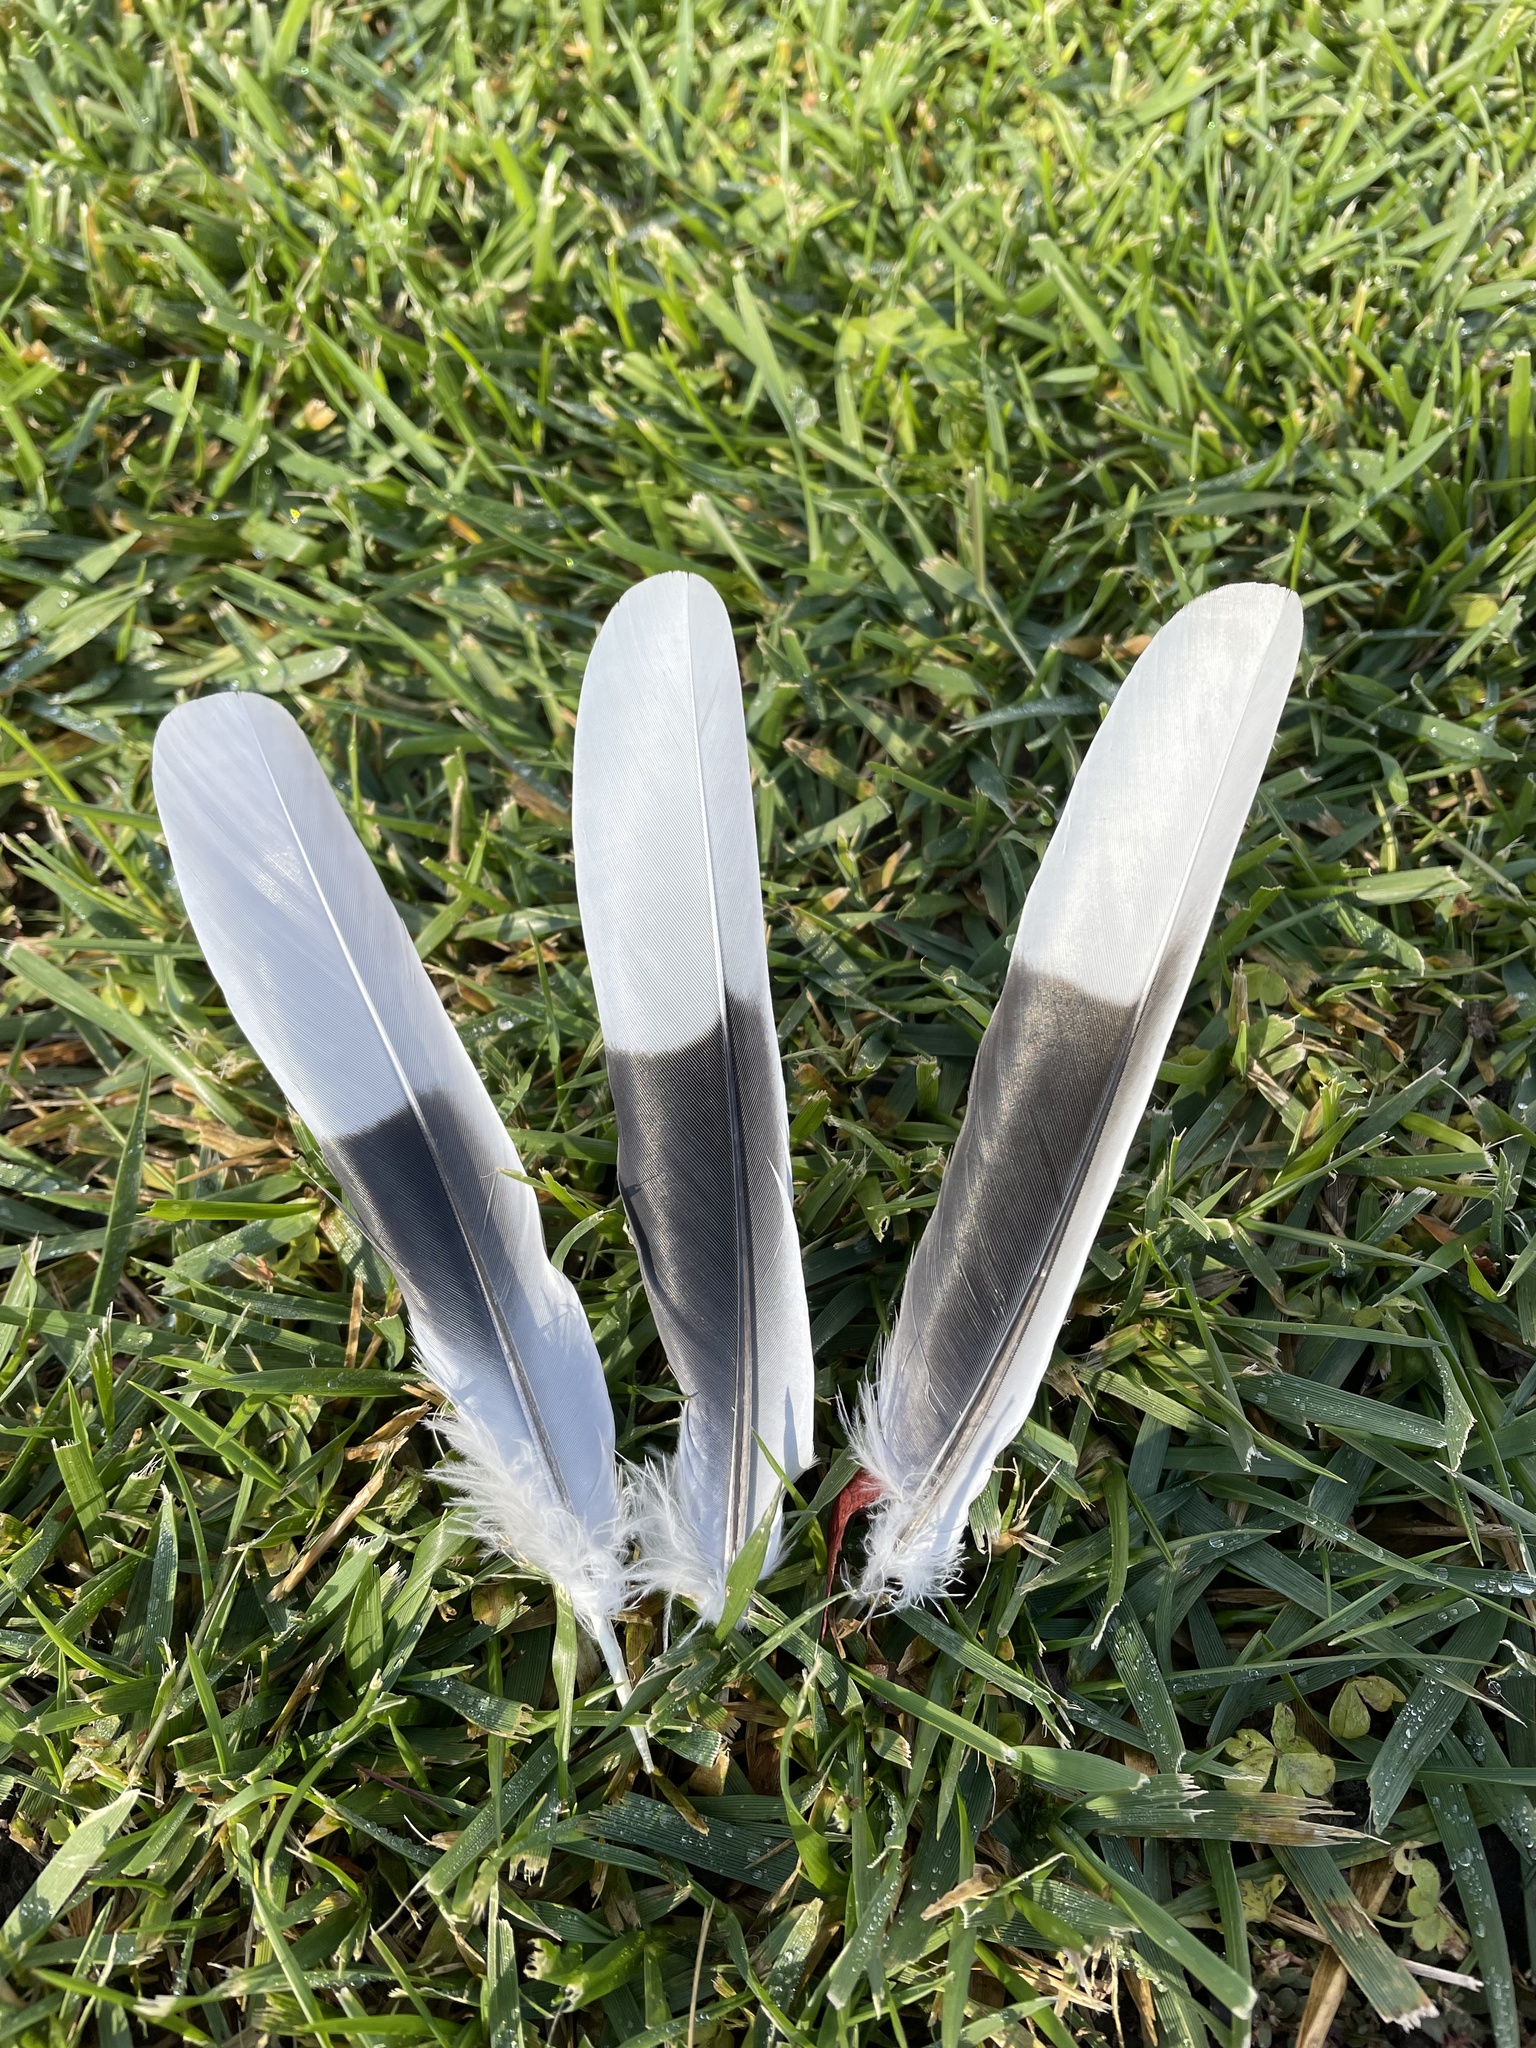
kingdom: Animalia
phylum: Chordata
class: Aves
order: Columbiformes
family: Columbidae
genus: Streptopelia
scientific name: Streptopelia decaocto
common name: Eurasian collared dove
